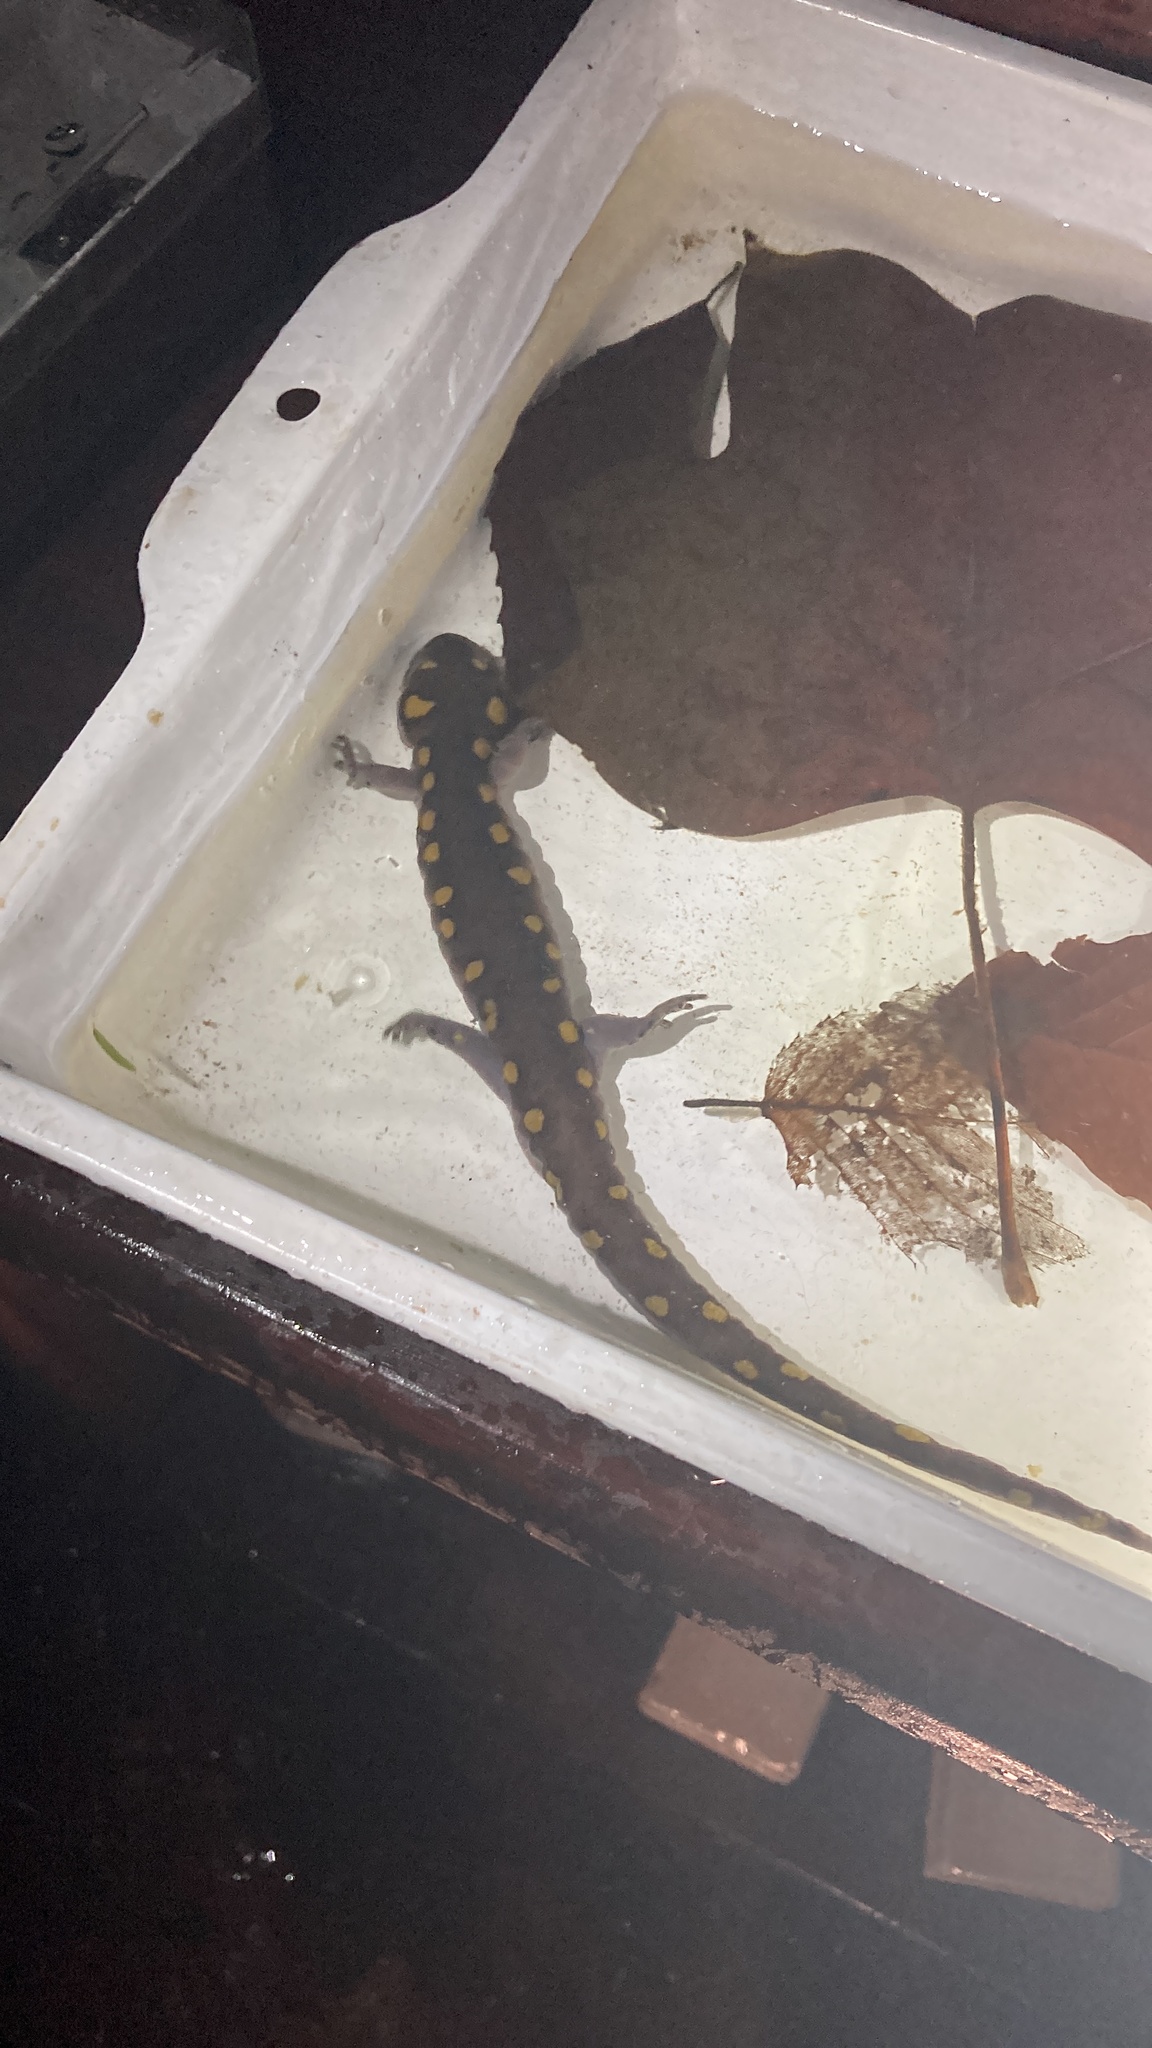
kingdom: Animalia
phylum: Chordata
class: Amphibia
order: Caudata
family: Ambystomatidae
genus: Ambystoma
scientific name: Ambystoma maculatum
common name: Spotted salamander
